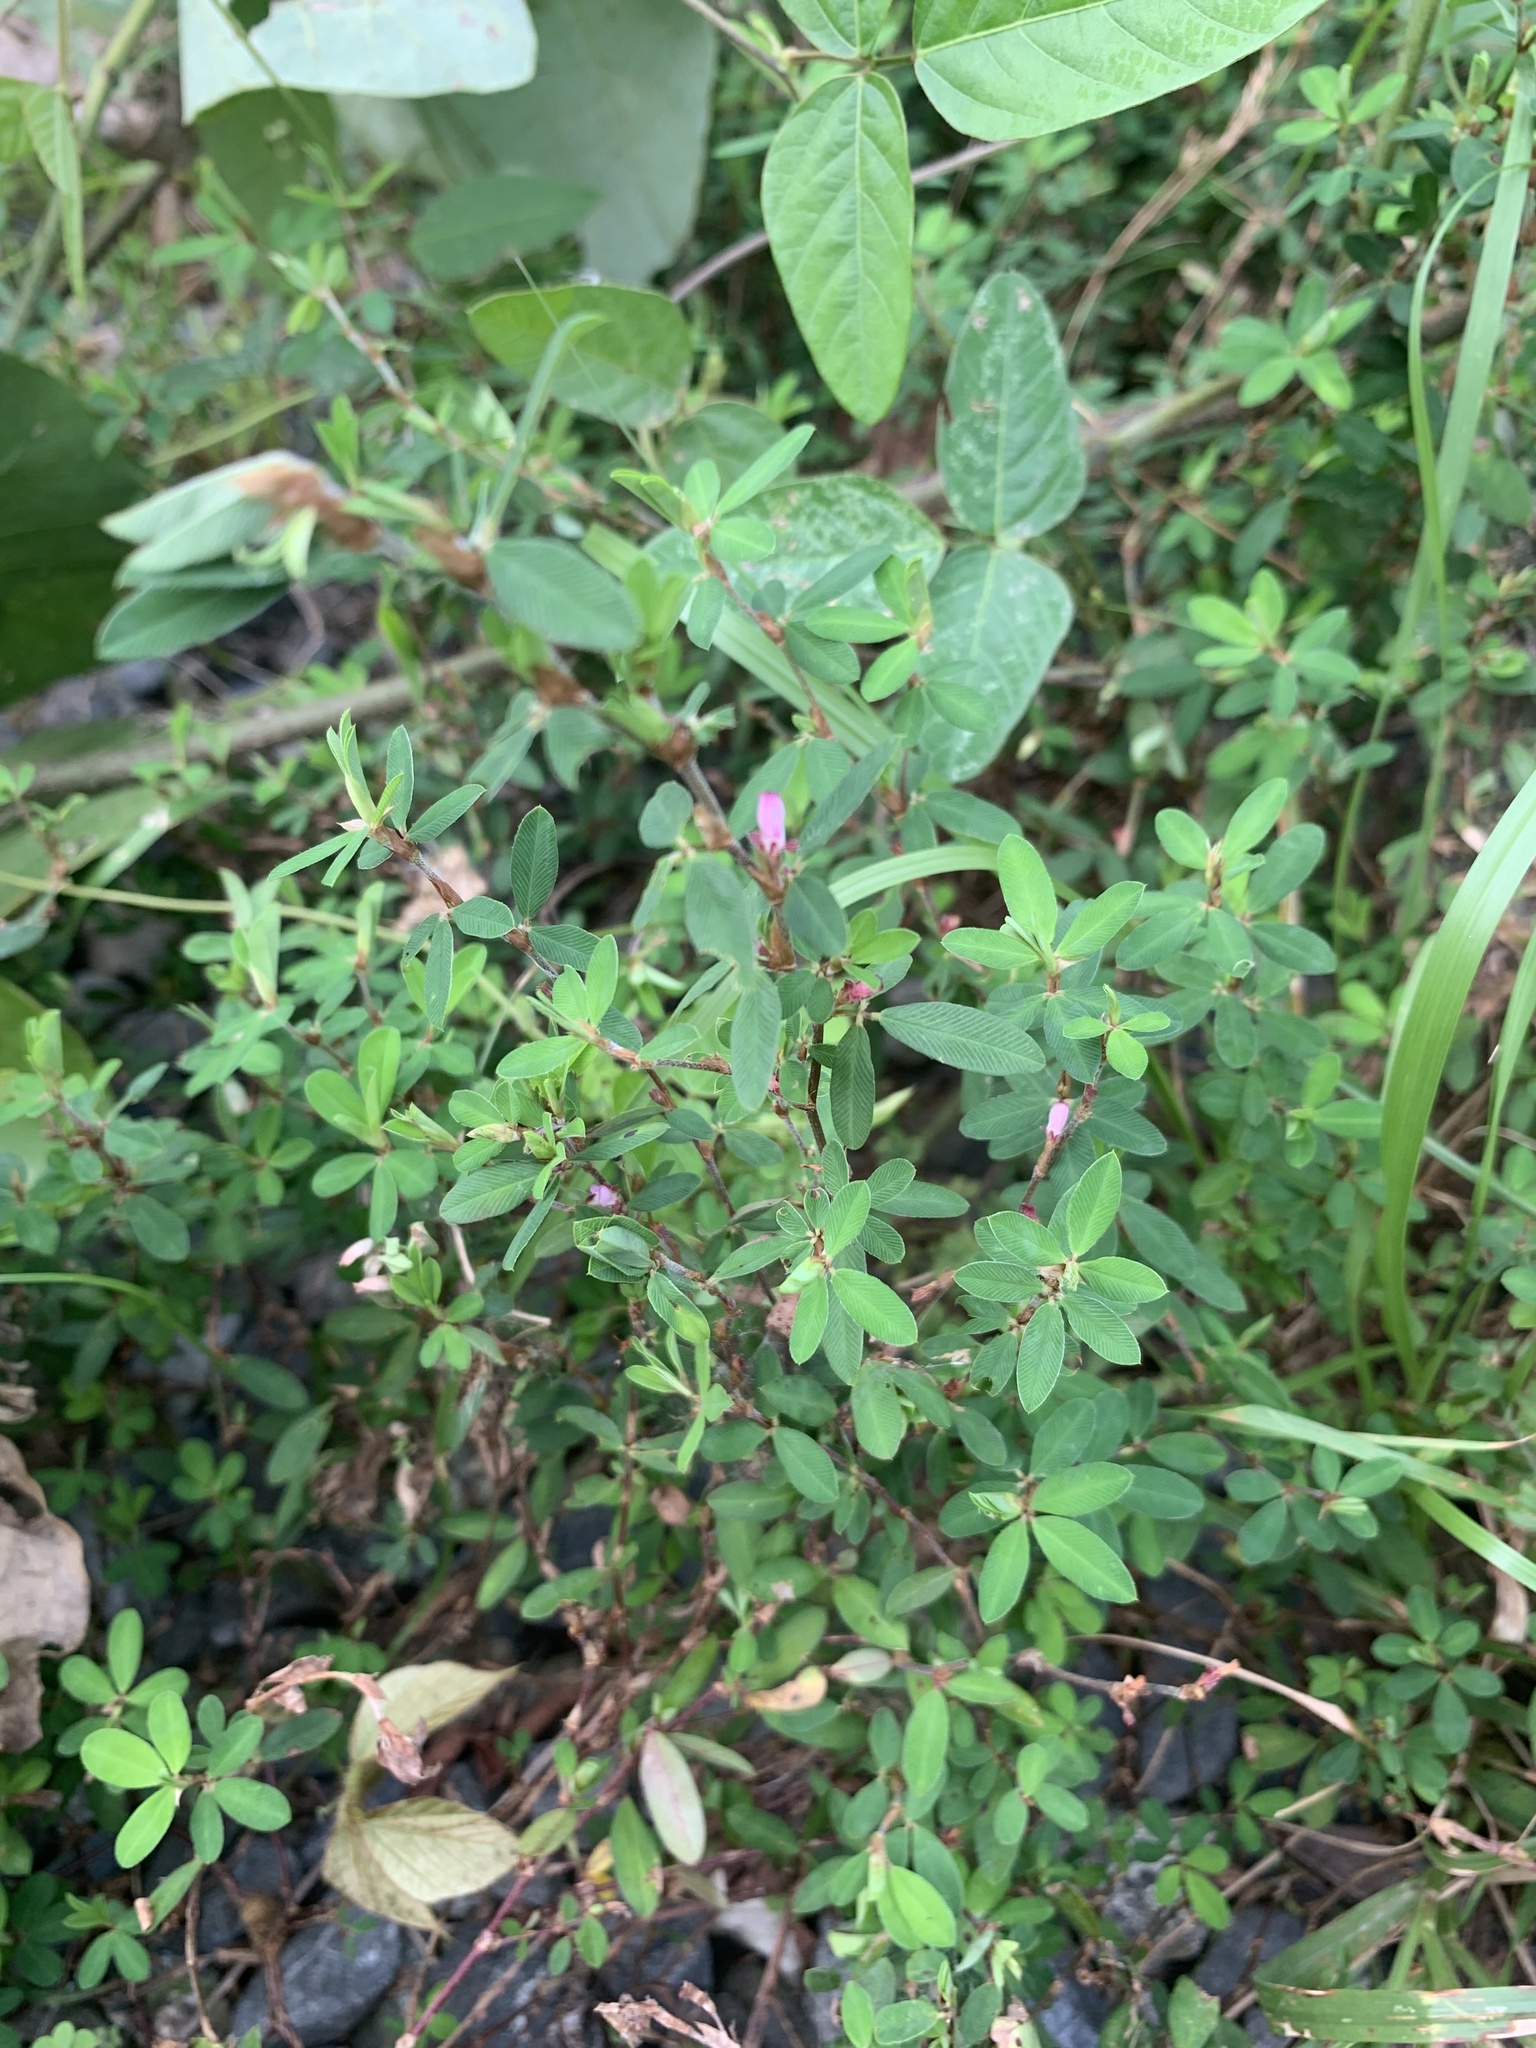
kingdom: Plantae
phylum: Tracheophyta
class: Magnoliopsida
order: Fabales
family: Fabaceae
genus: Kummerowia
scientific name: Kummerowia striata
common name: Japanese clover
